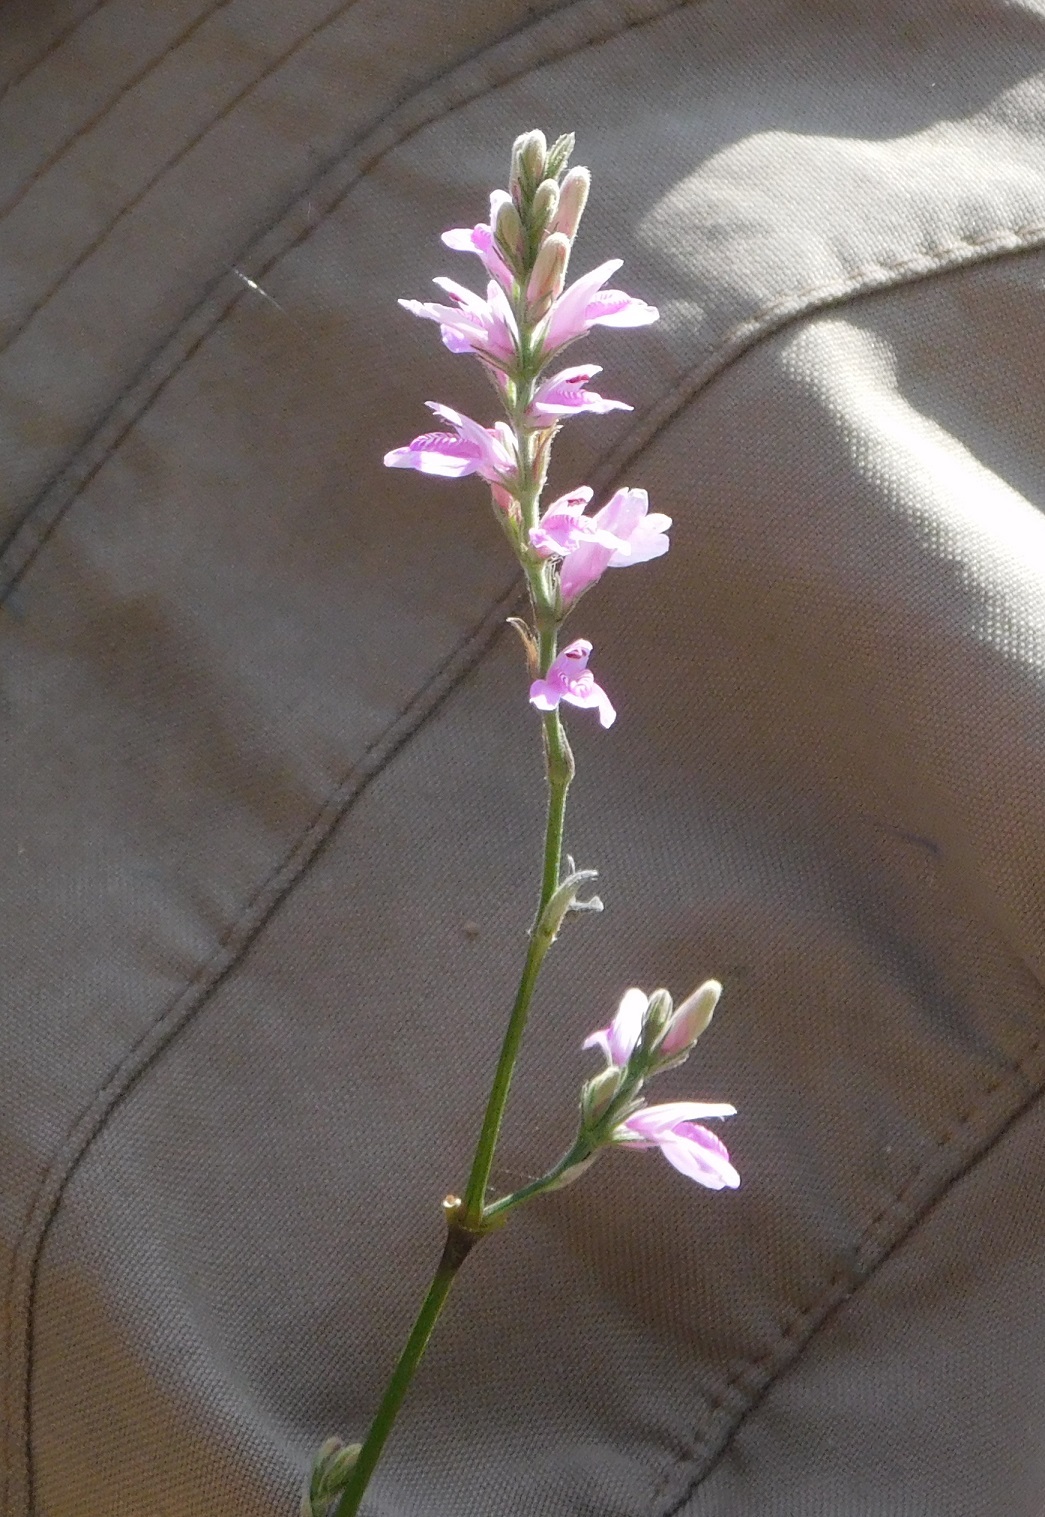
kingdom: Plantae
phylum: Tracheophyta
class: Magnoliopsida
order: Lamiales
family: Acanthaceae
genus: Dianthera
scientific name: Dianthera breviflora
